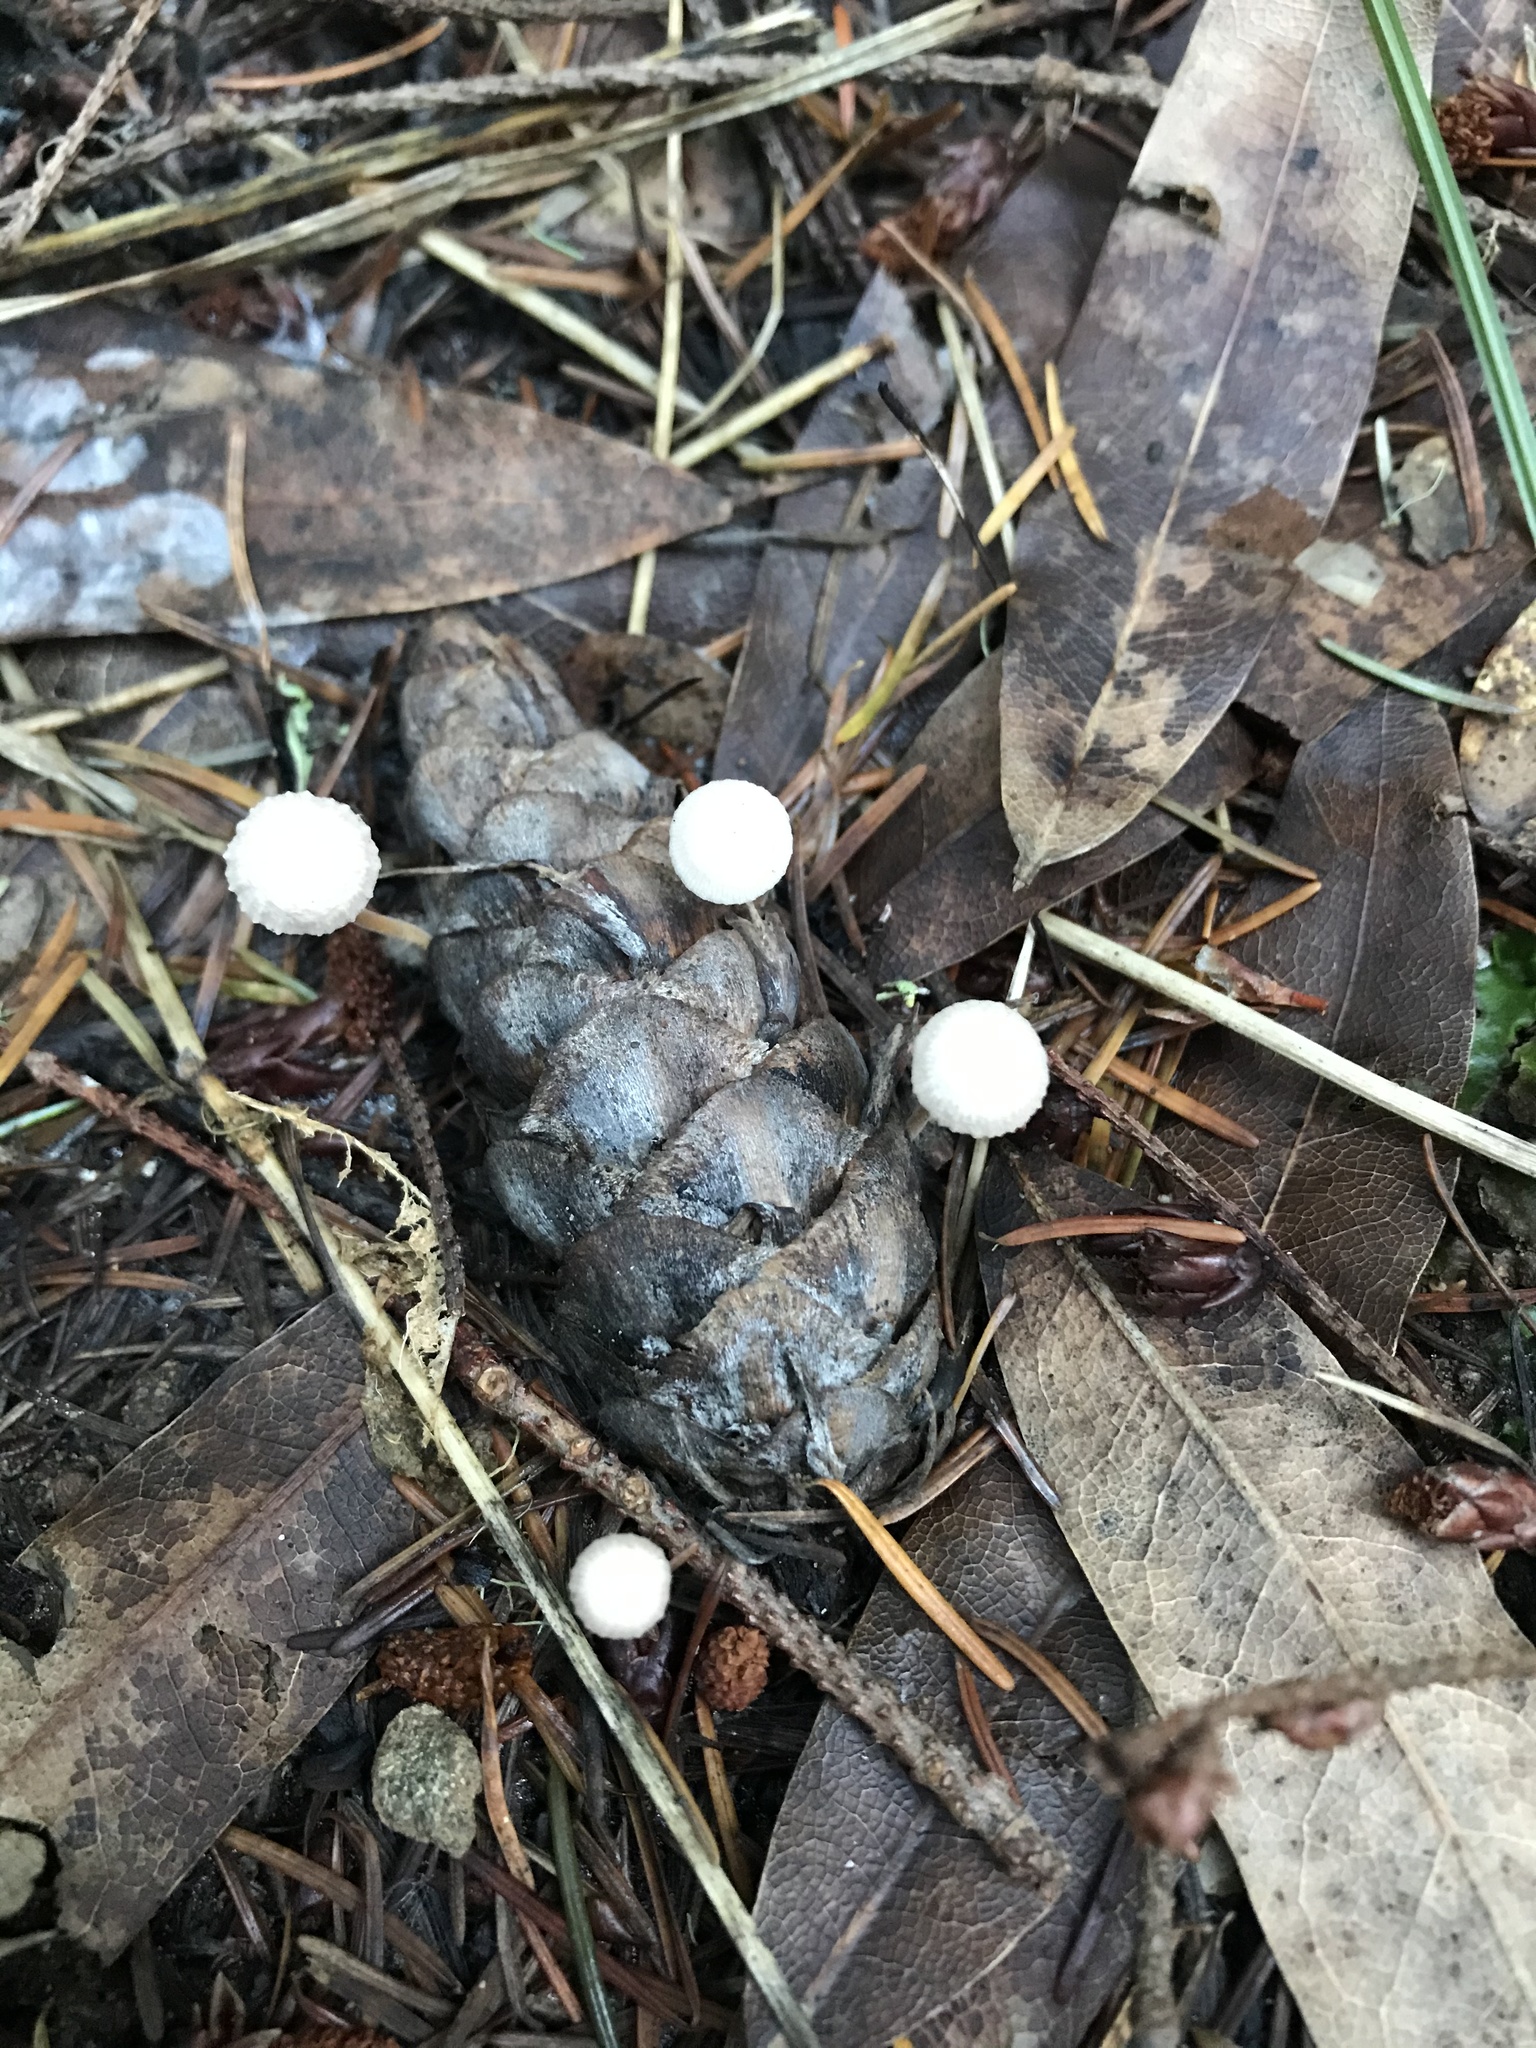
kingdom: Fungi
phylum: Basidiomycota
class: Agaricomycetes
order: Agaricales
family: Physalacriaceae
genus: Strobilurus
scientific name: Strobilurus trullisatus
